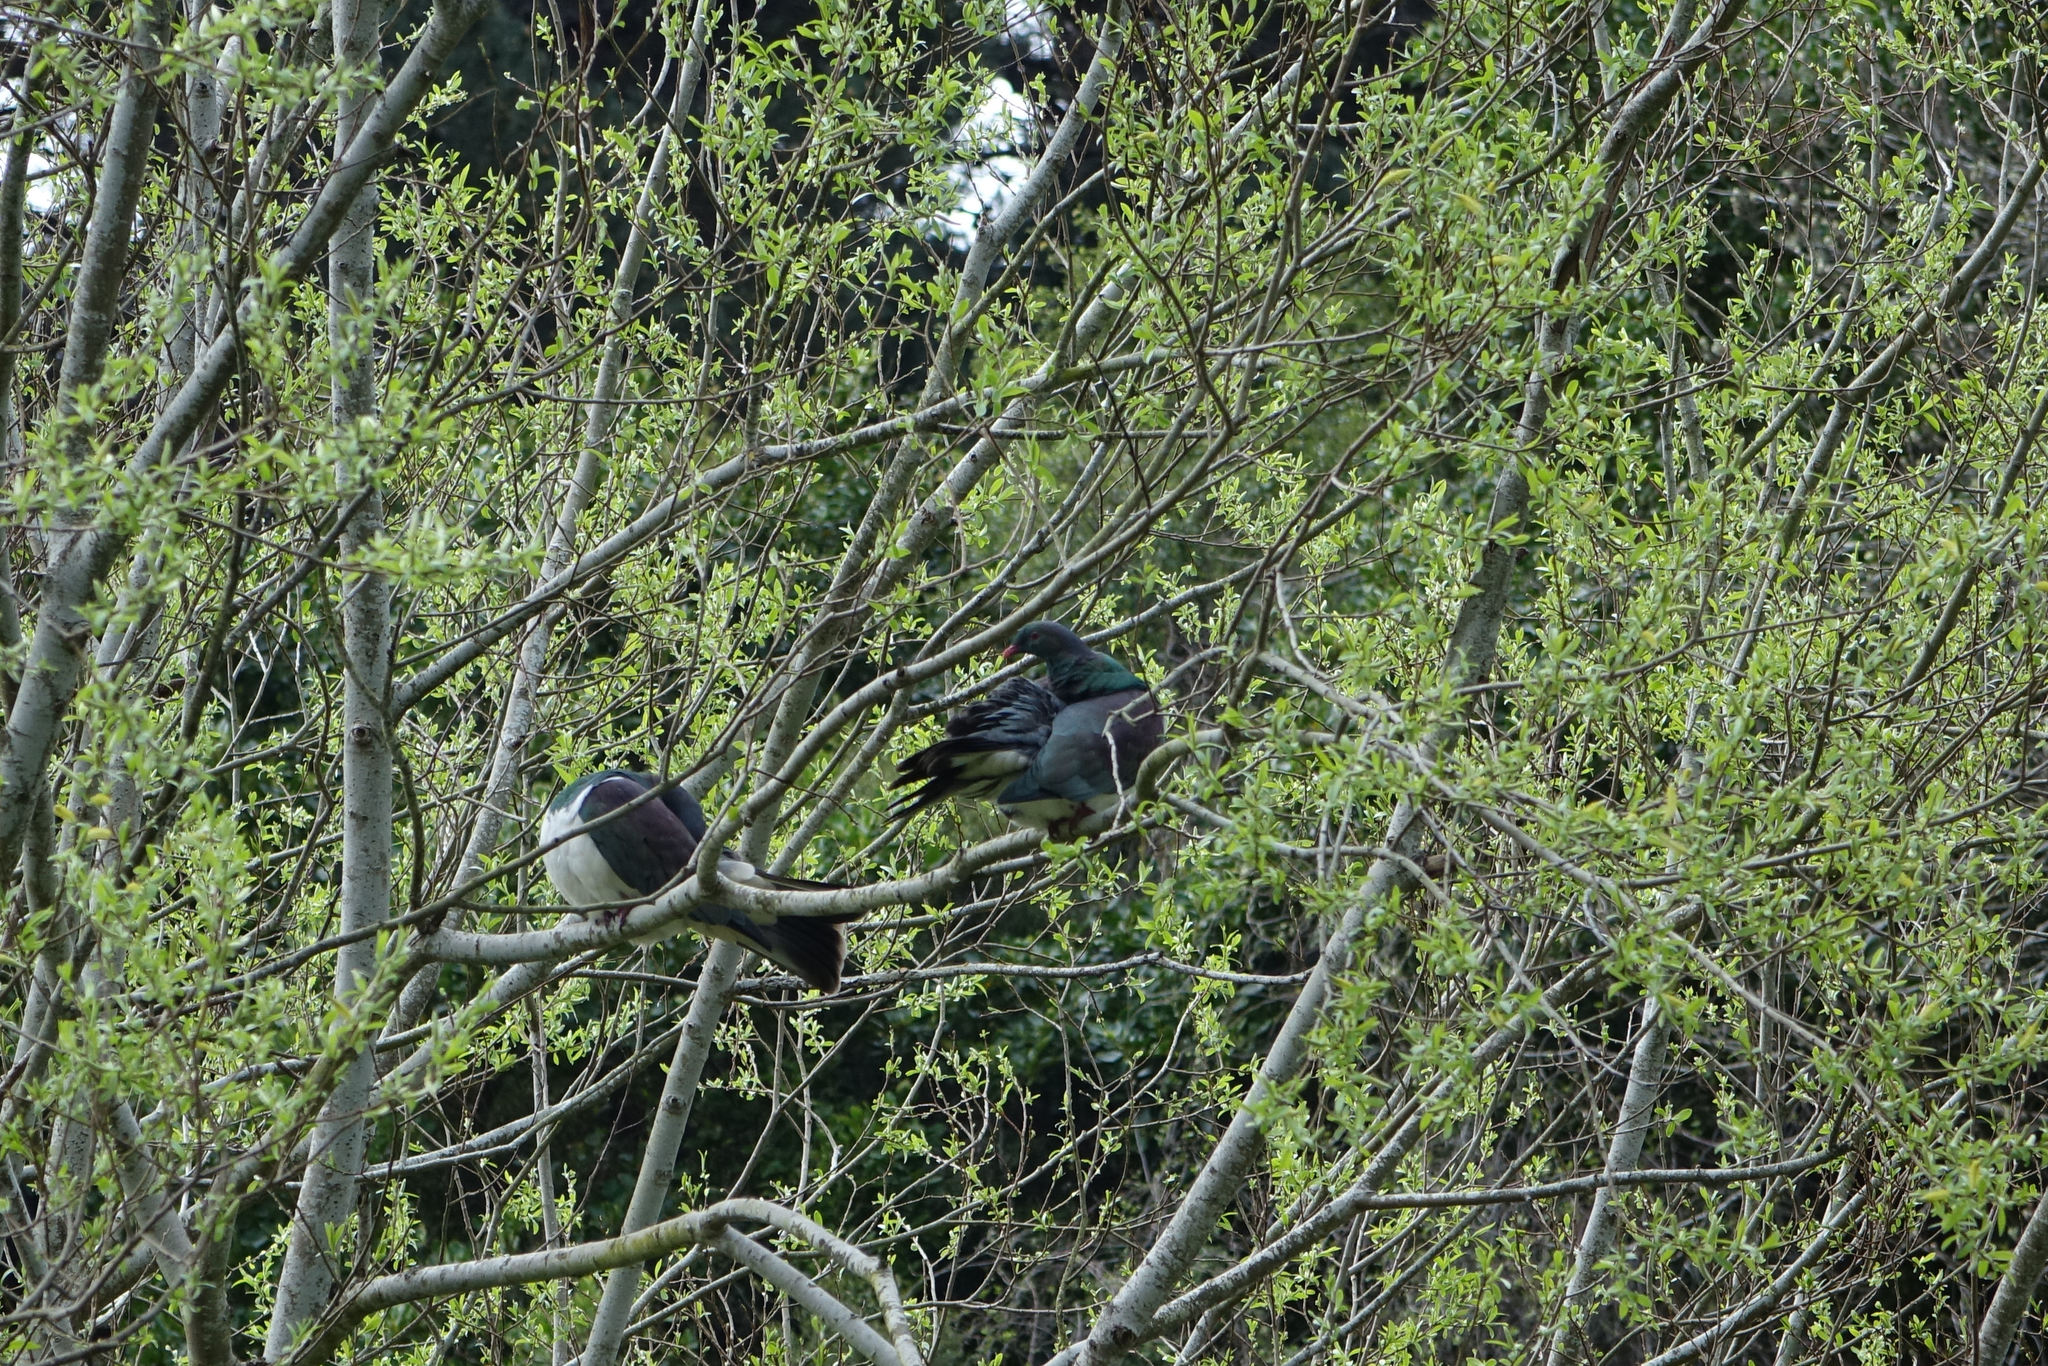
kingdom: Animalia
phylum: Chordata
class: Aves
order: Columbiformes
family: Columbidae
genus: Hemiphaga
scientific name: Hemiphaga novaeseelandiae
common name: New zealand pigeon
